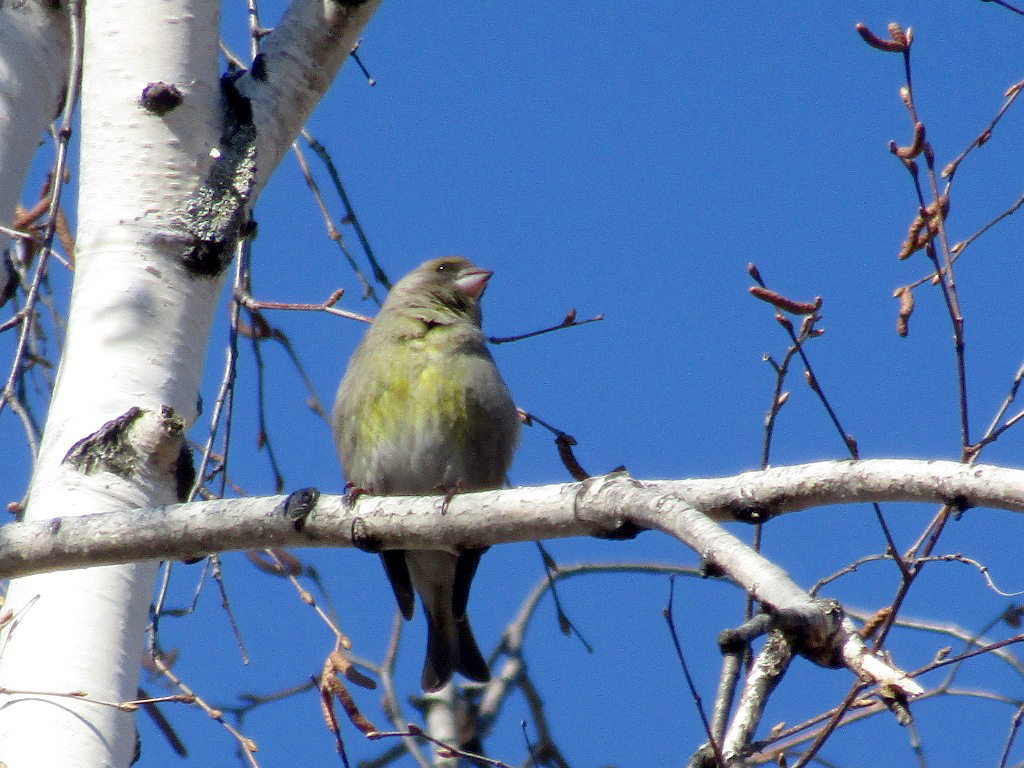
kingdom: Plantae
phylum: Tracheophyta
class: Liliopsida
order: Poales
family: Poaceae
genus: Chloris
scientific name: Chloris chloris
